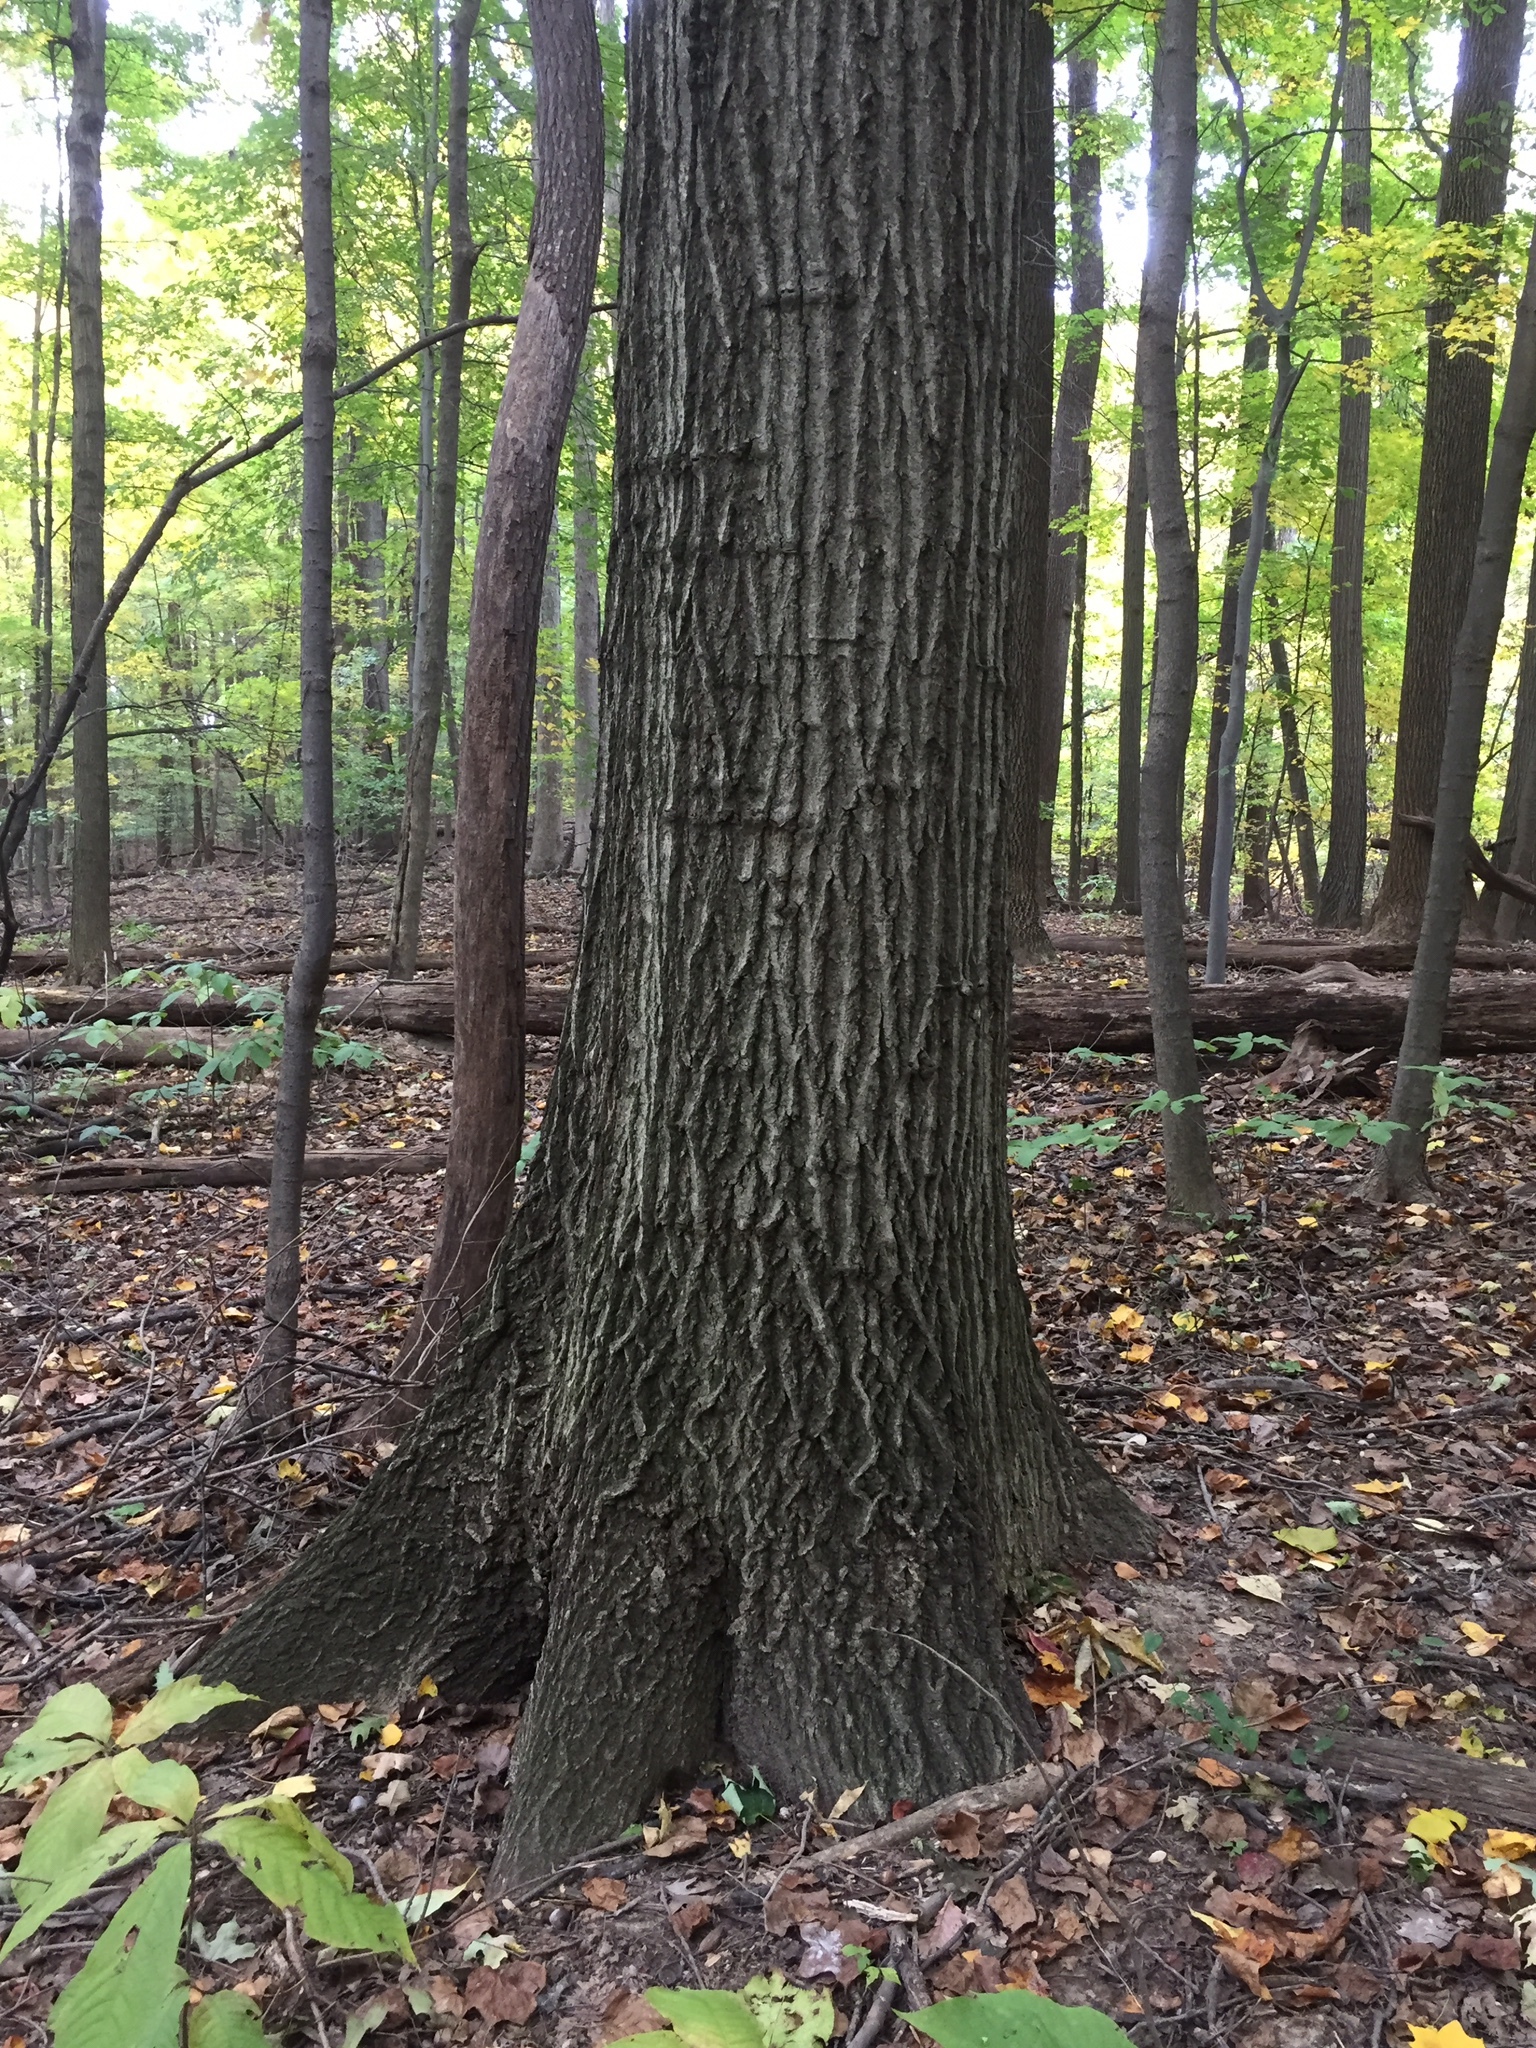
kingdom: Plantae
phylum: Tracheophyta
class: Magnoliopsida
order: Fagales
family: Fagaceae
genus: Quercus
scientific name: Quercus rubra
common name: Red oak
